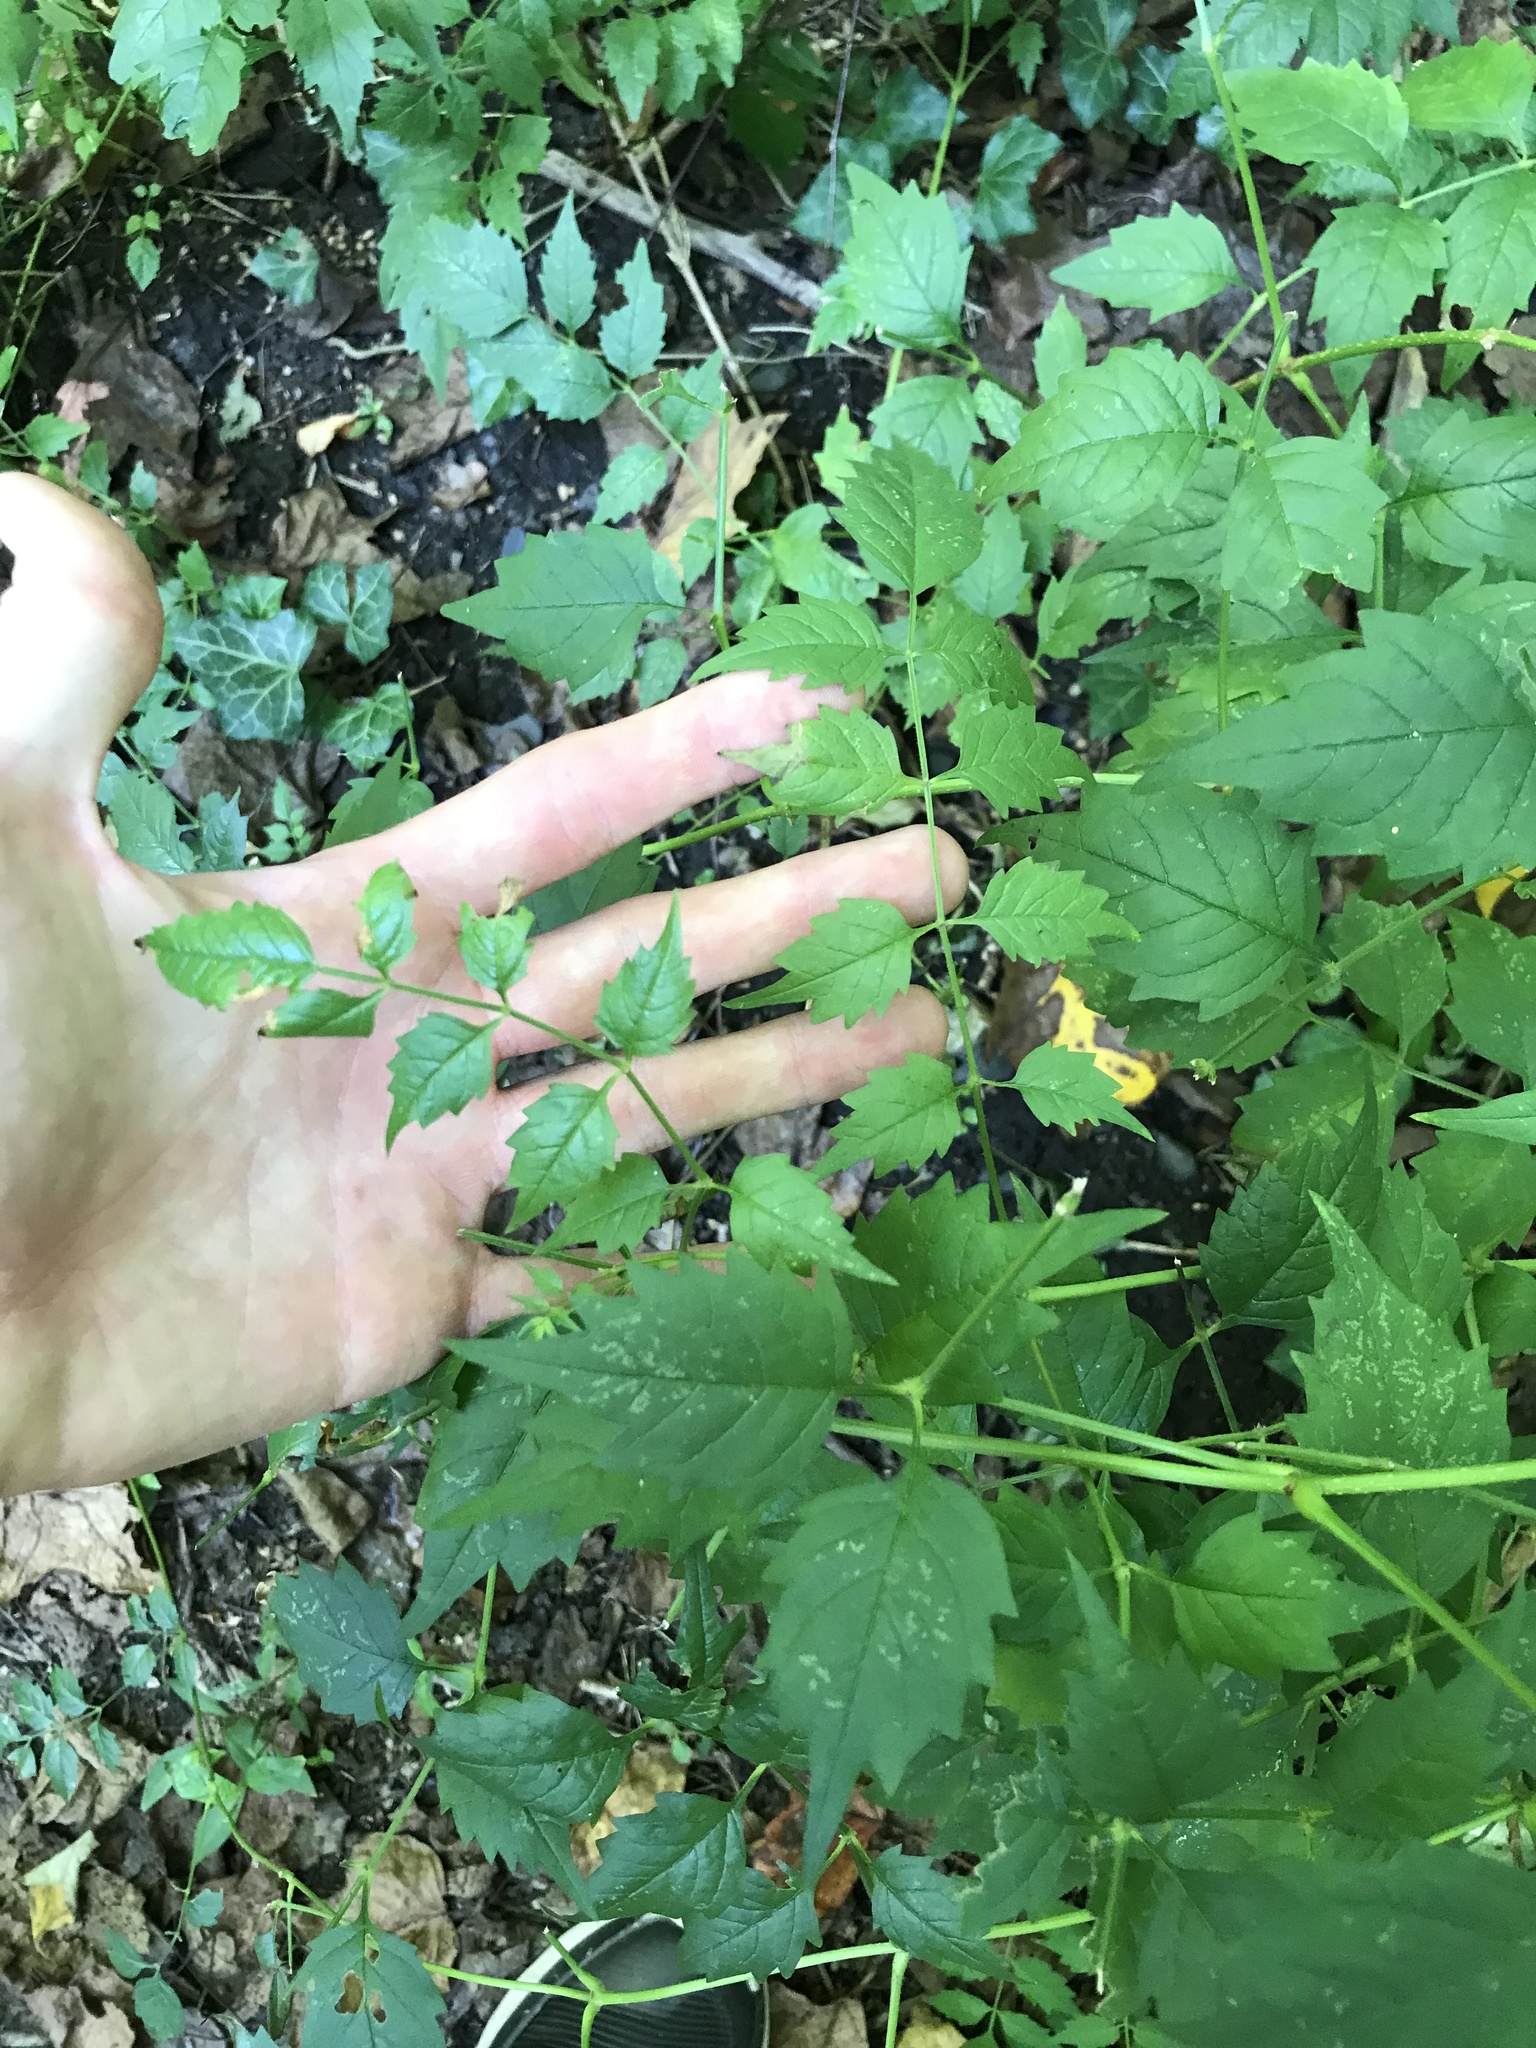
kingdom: Plantae
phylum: Tracheophyta
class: Magnoliopsida
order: Lamiales
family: Bignoniaceae
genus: Campsis
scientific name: Campsis radicans
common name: Trumpet-creeper
